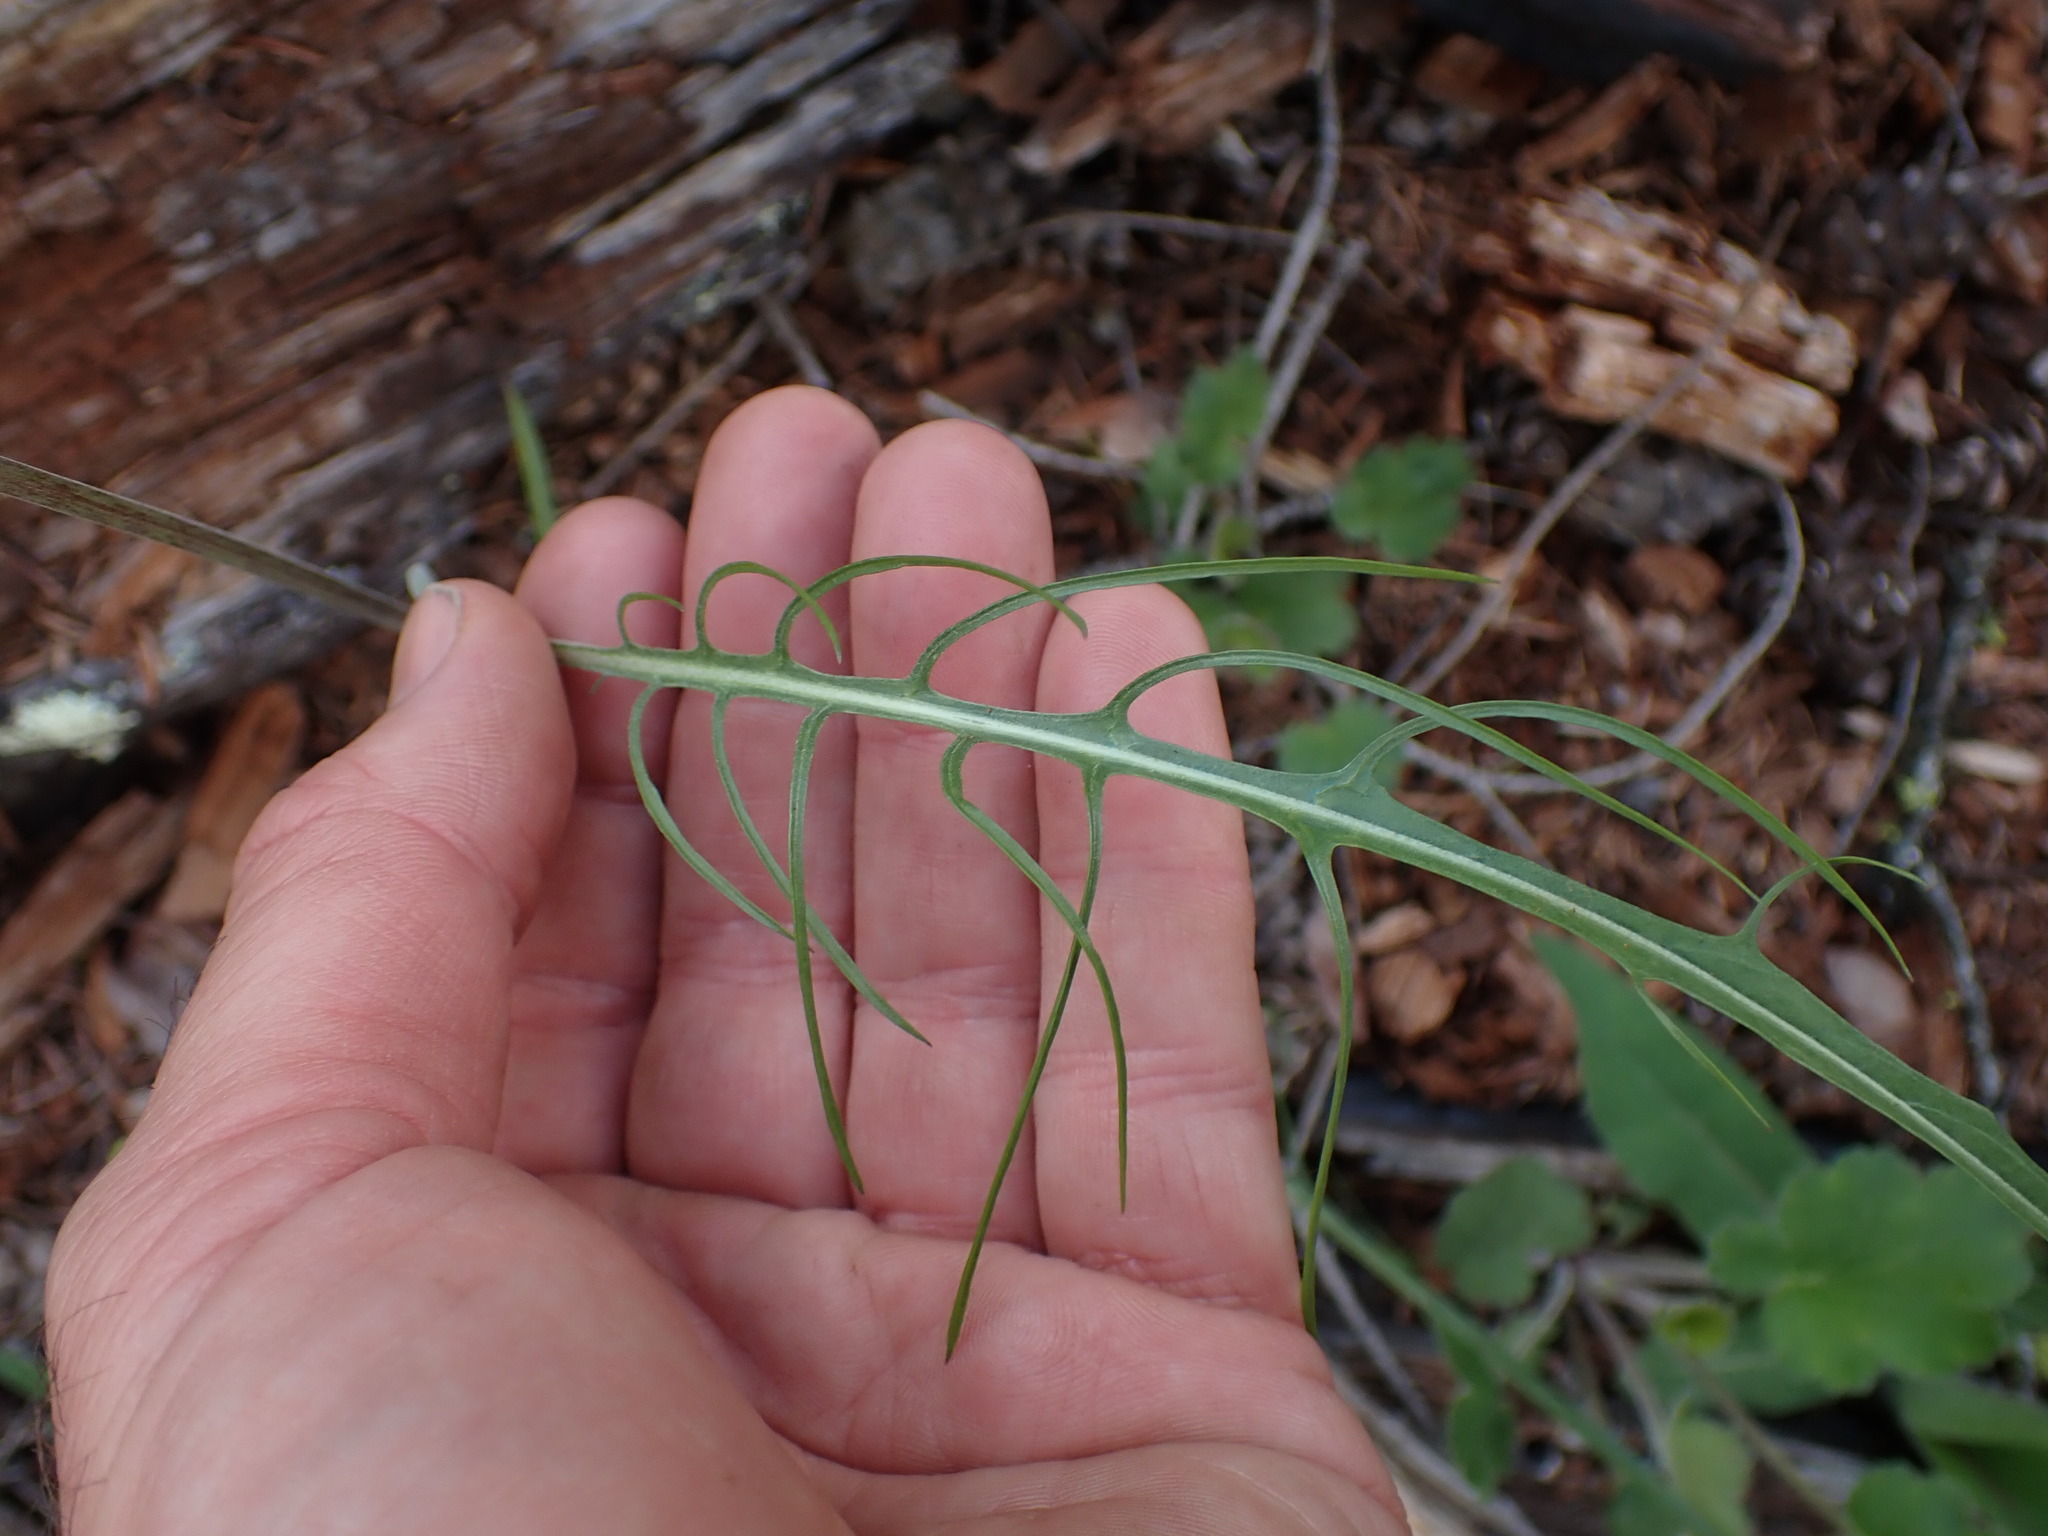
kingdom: Plantae
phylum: Tracheophyta
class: Magnoliopsida
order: Asterales
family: Asteraceae
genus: Crepis
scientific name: Crepis atribarba
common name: Dark hawk's-beard
